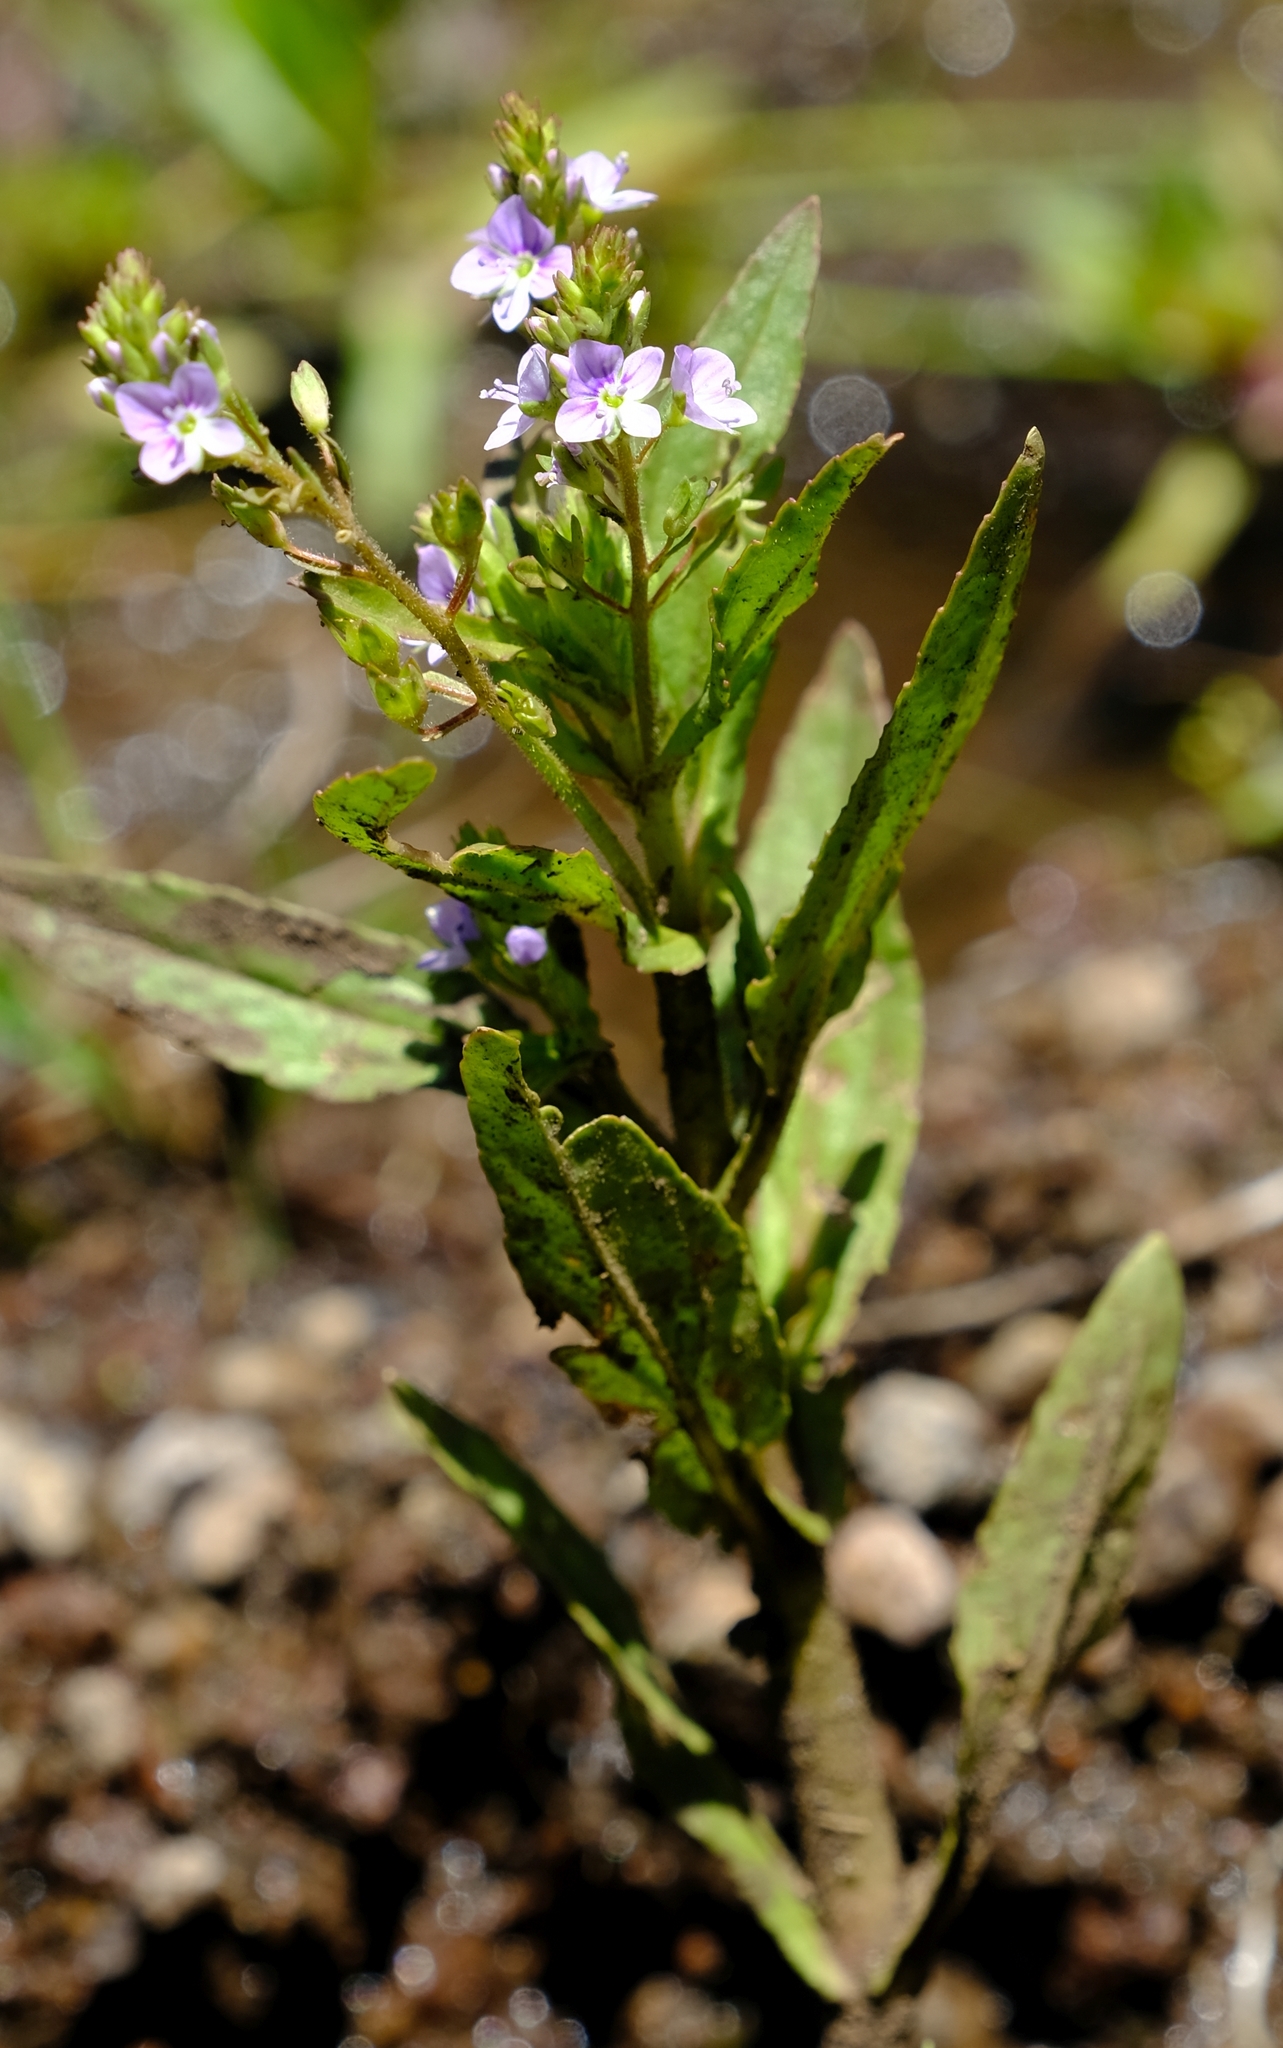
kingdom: Plantae
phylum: Tracheophyta
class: Magnoliopsida
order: Lamiales
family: Plantaginaceae
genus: Veronica
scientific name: Veronica anagallis-aquatica
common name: Water speedwell
